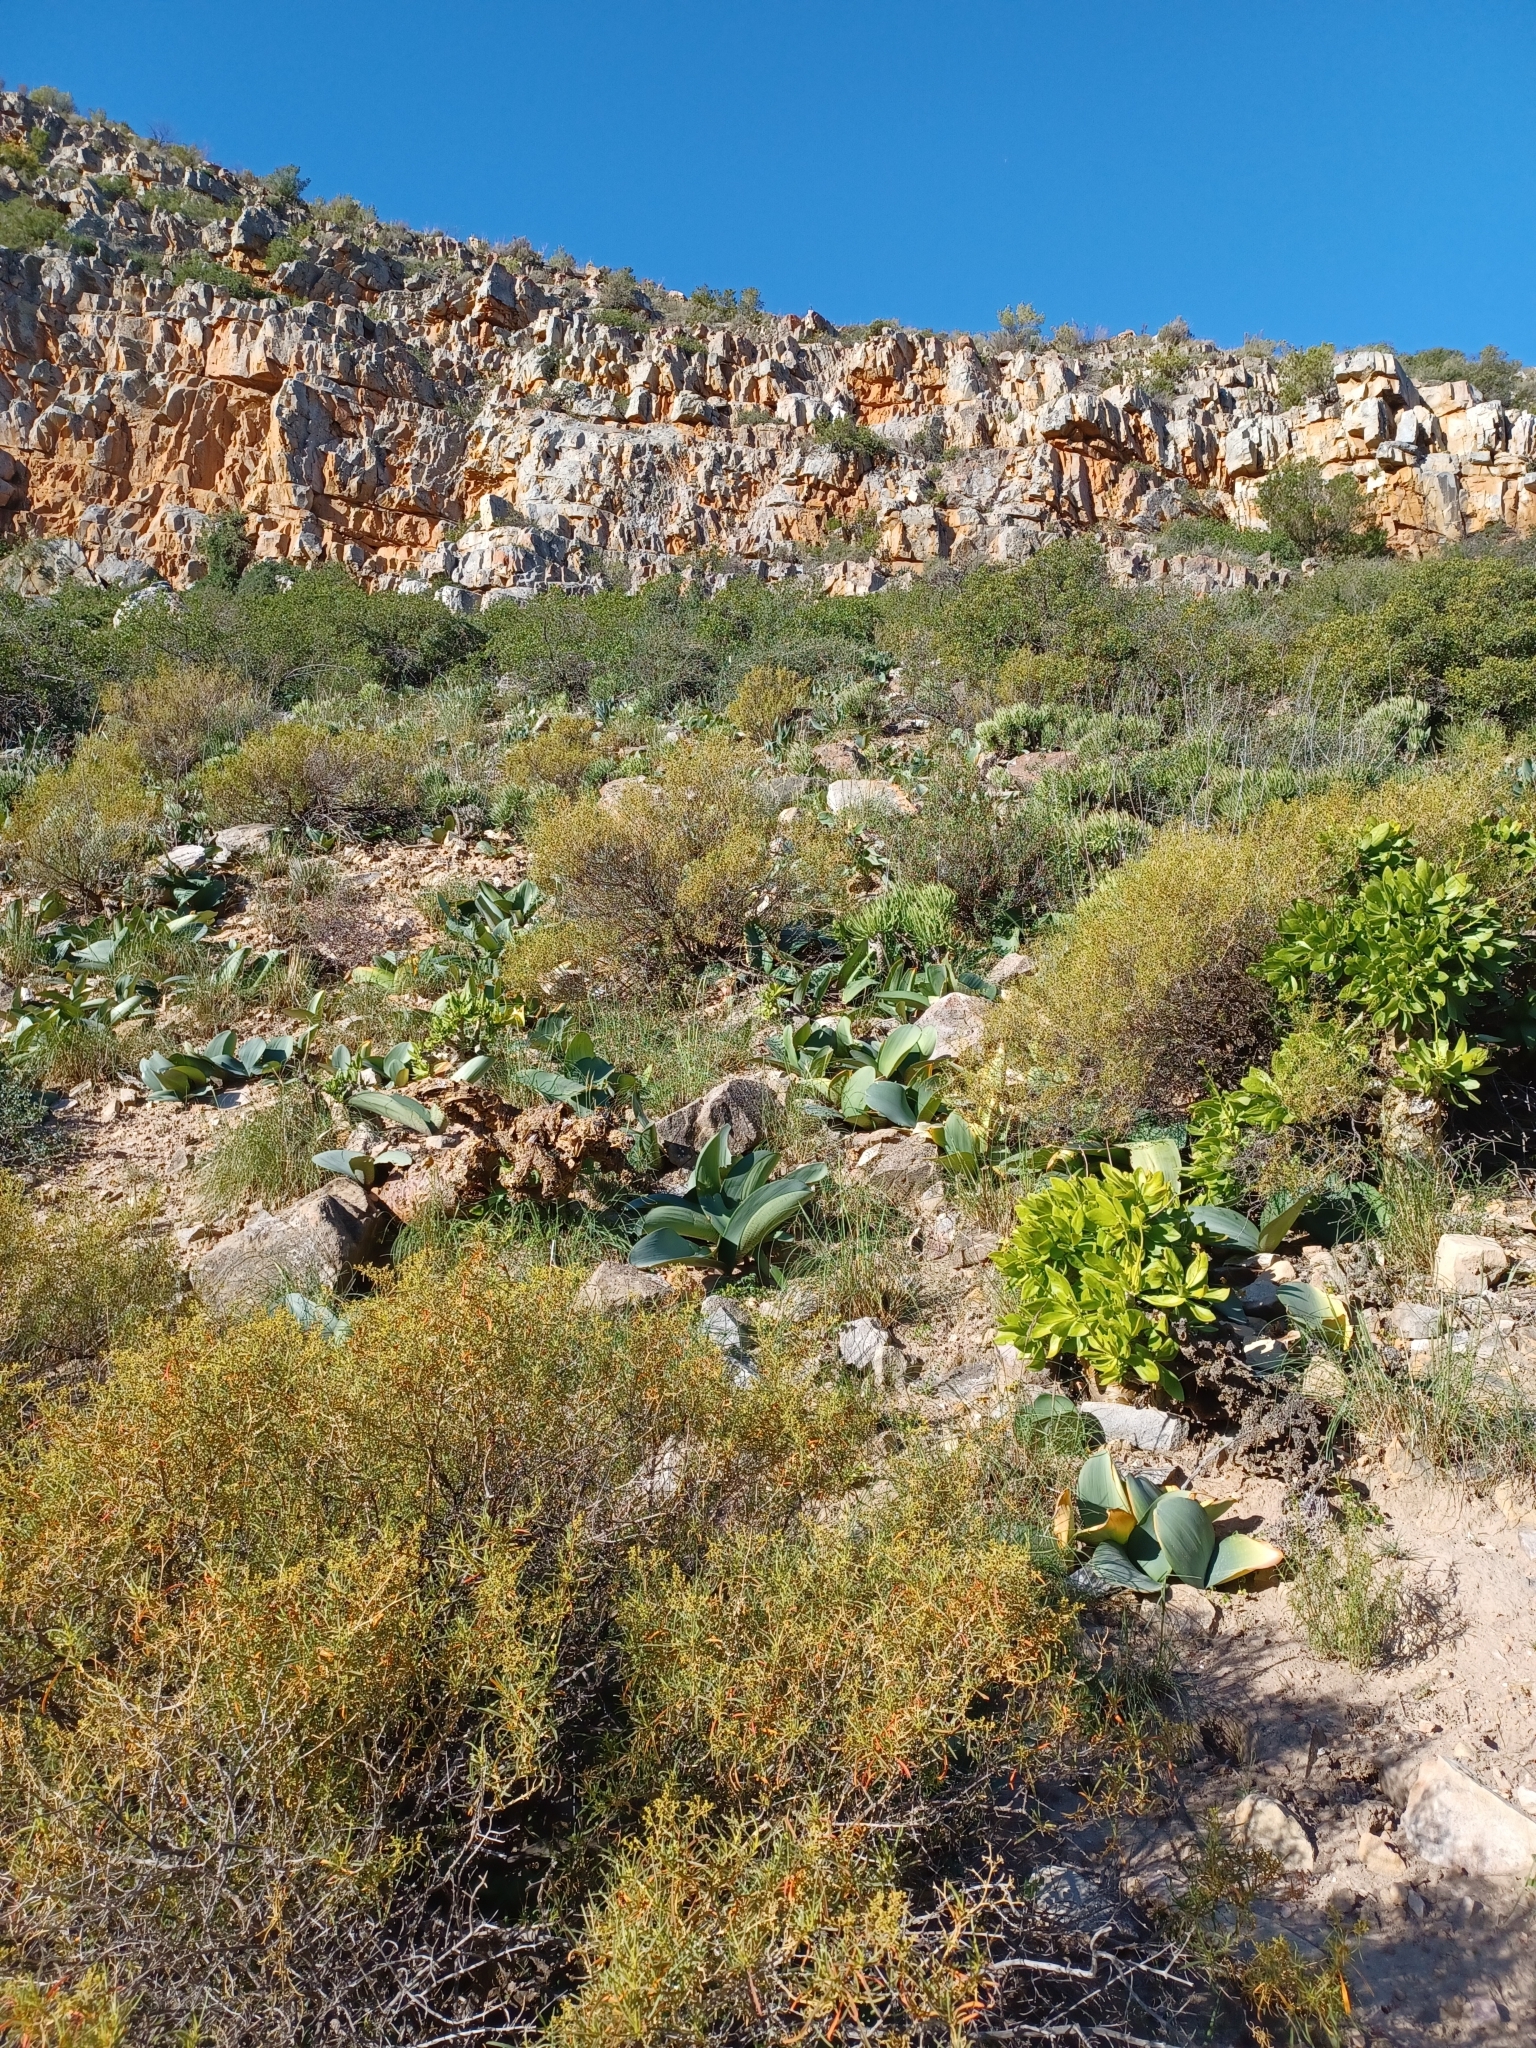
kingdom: Plantae
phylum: Tracheophyta
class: Liliopsida
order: Asparagales
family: Amaryllidaceae
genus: Haemanthus
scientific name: Haemanthus coccineus
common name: Cape-tulip
